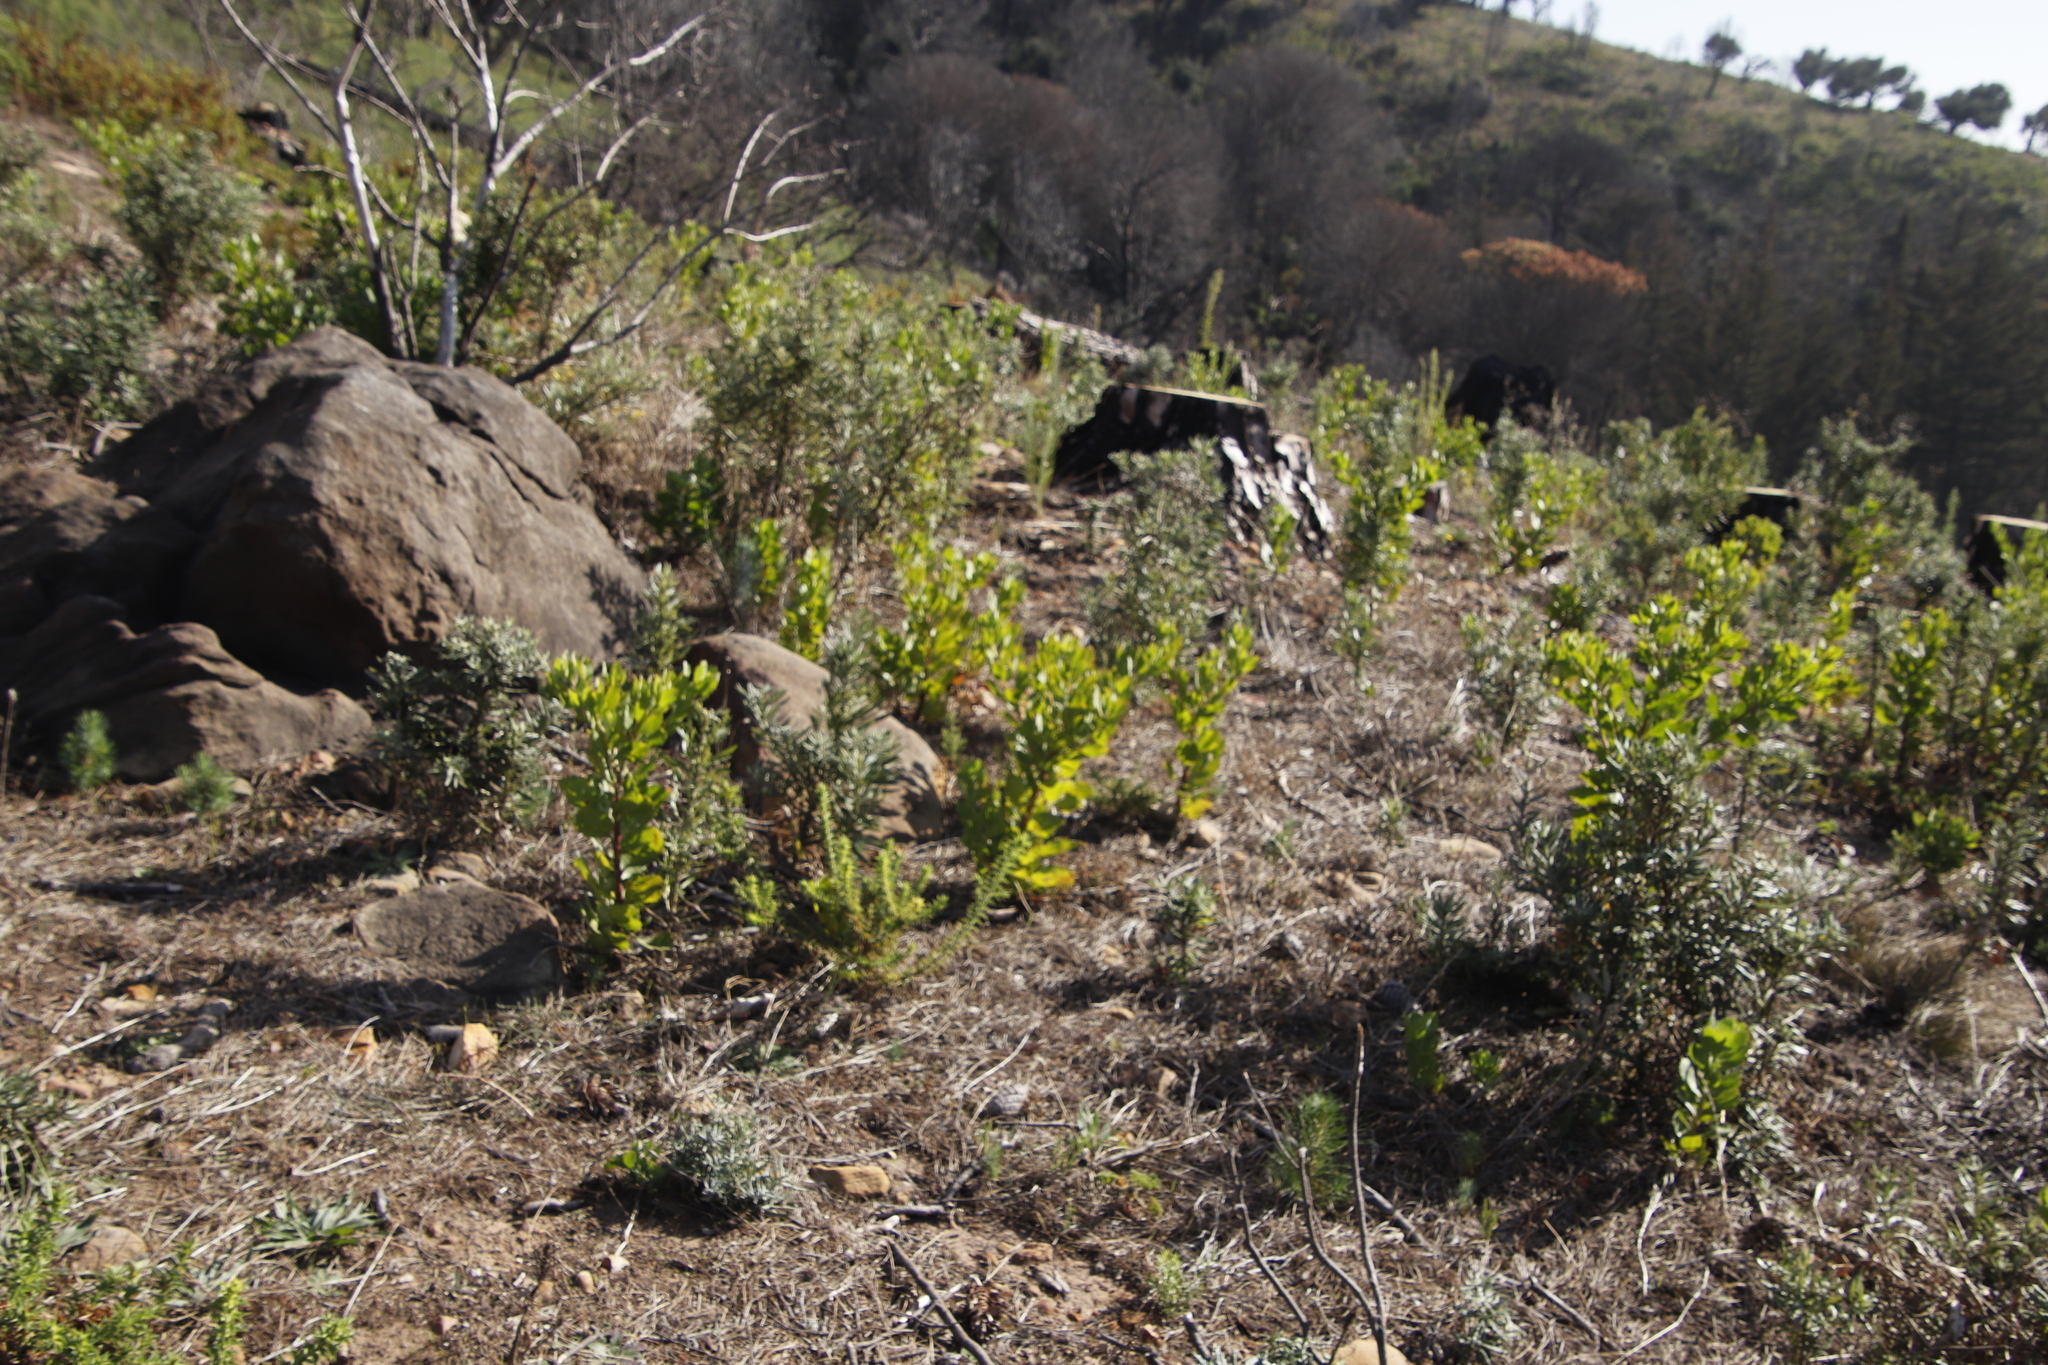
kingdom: Plantae
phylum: Tracheophyta
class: Magnoliopsida
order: Asterales
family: Asteraceae
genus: Osteospermum
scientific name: Osteospermum moniliferum
